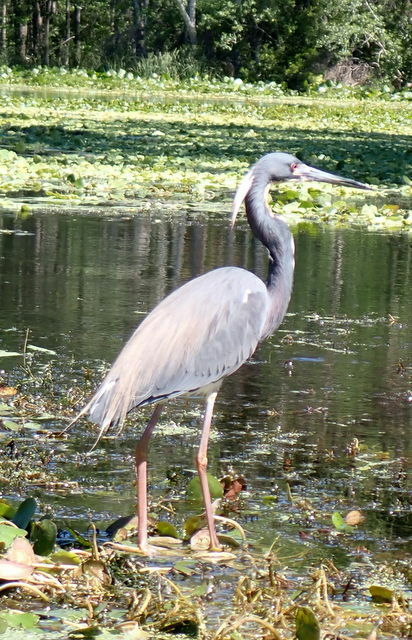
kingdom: Animalia
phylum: Chordata
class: Aves
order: Pelecaniformes
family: Ardeidae
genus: Egretta
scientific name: Egretta tricolor
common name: Tricolored heron
